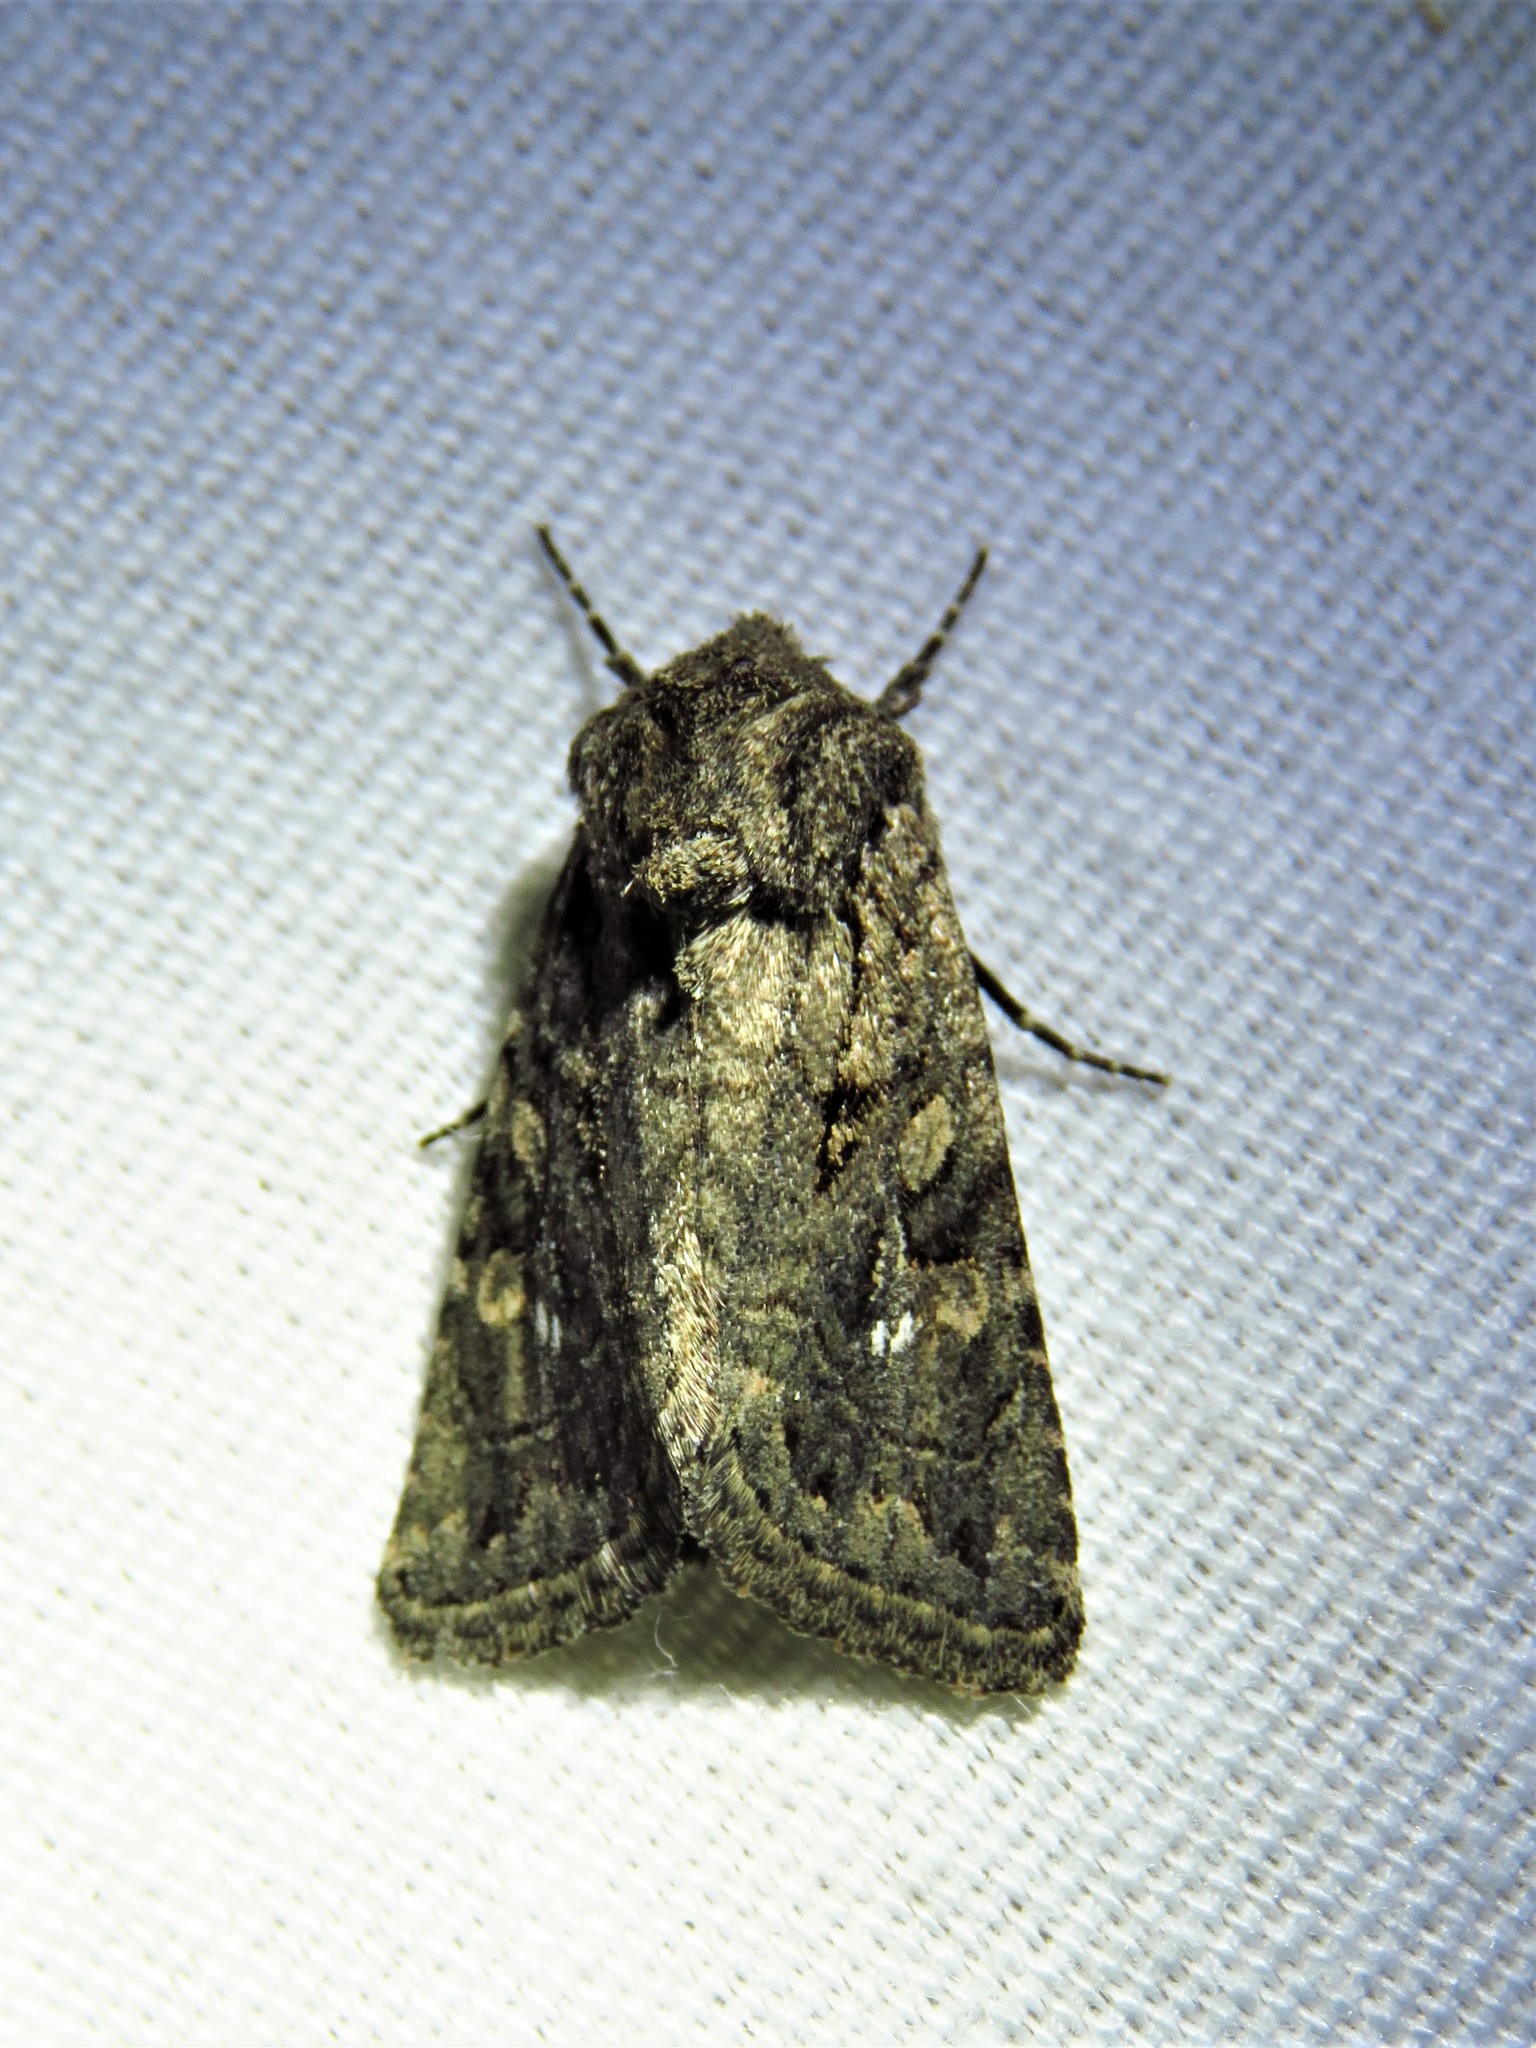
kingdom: Animalia
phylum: Arthropoda
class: Insecta
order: Lepidoptera
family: Noctuidae
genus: Ulolonche
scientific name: Ulolonche orbiculata
